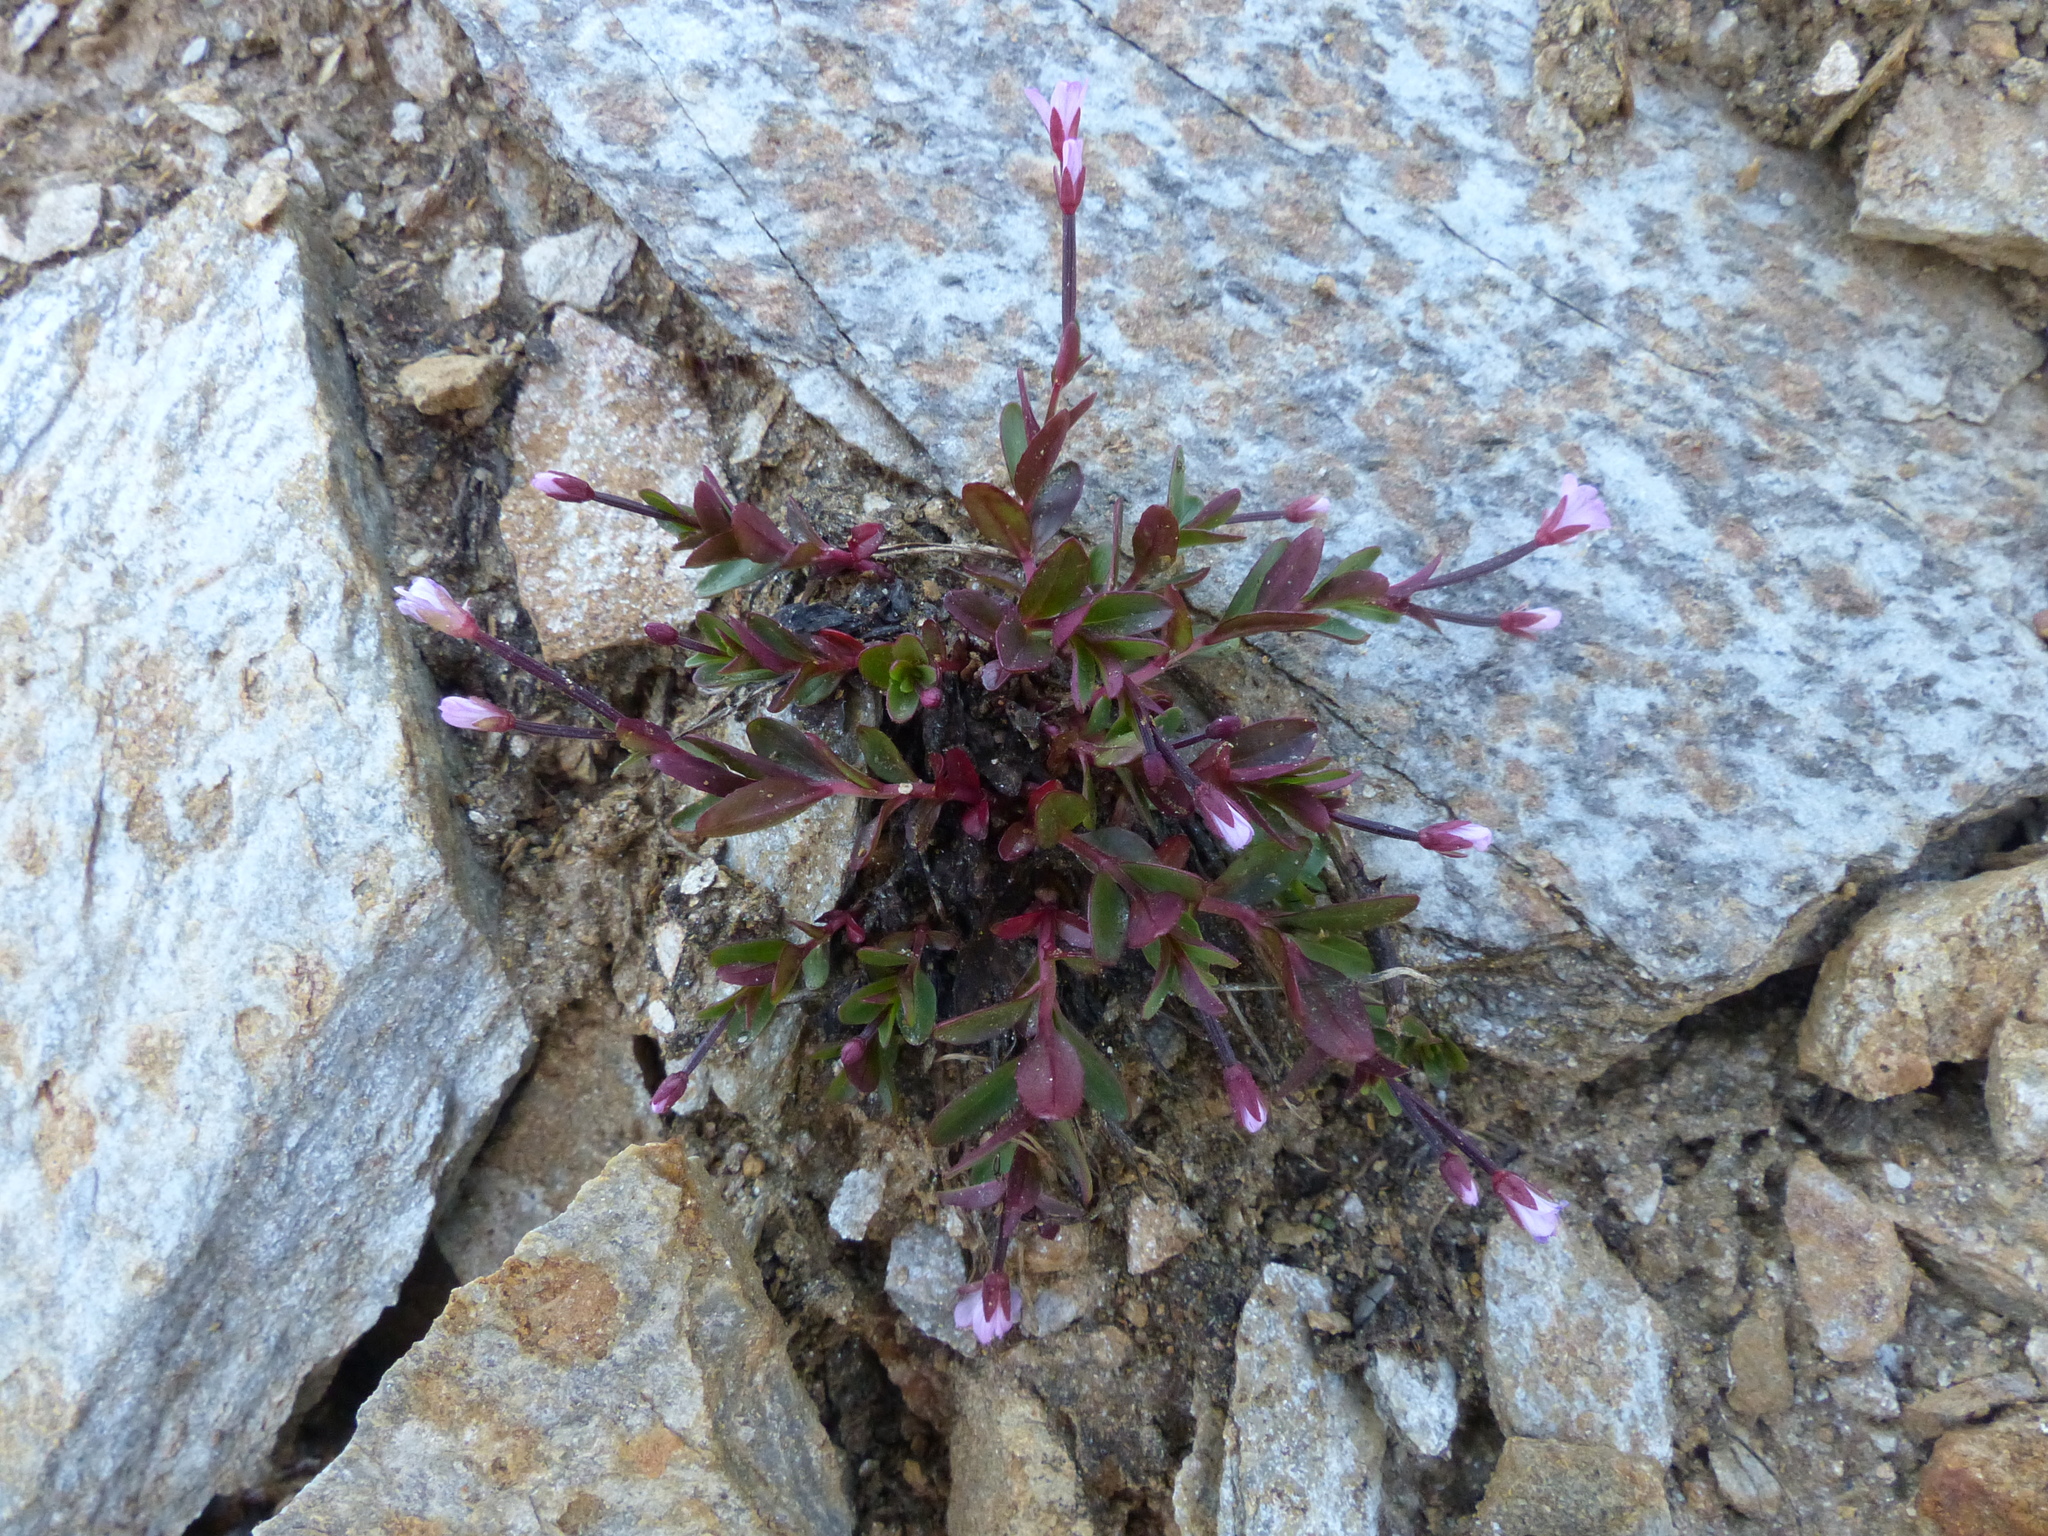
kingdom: Plantae
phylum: Tracheophyta
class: Magnoliopsida
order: Myrtales
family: Onagraceae
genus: Epilobium
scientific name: Epilobium anagallidifolium
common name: Alpine willowherb
